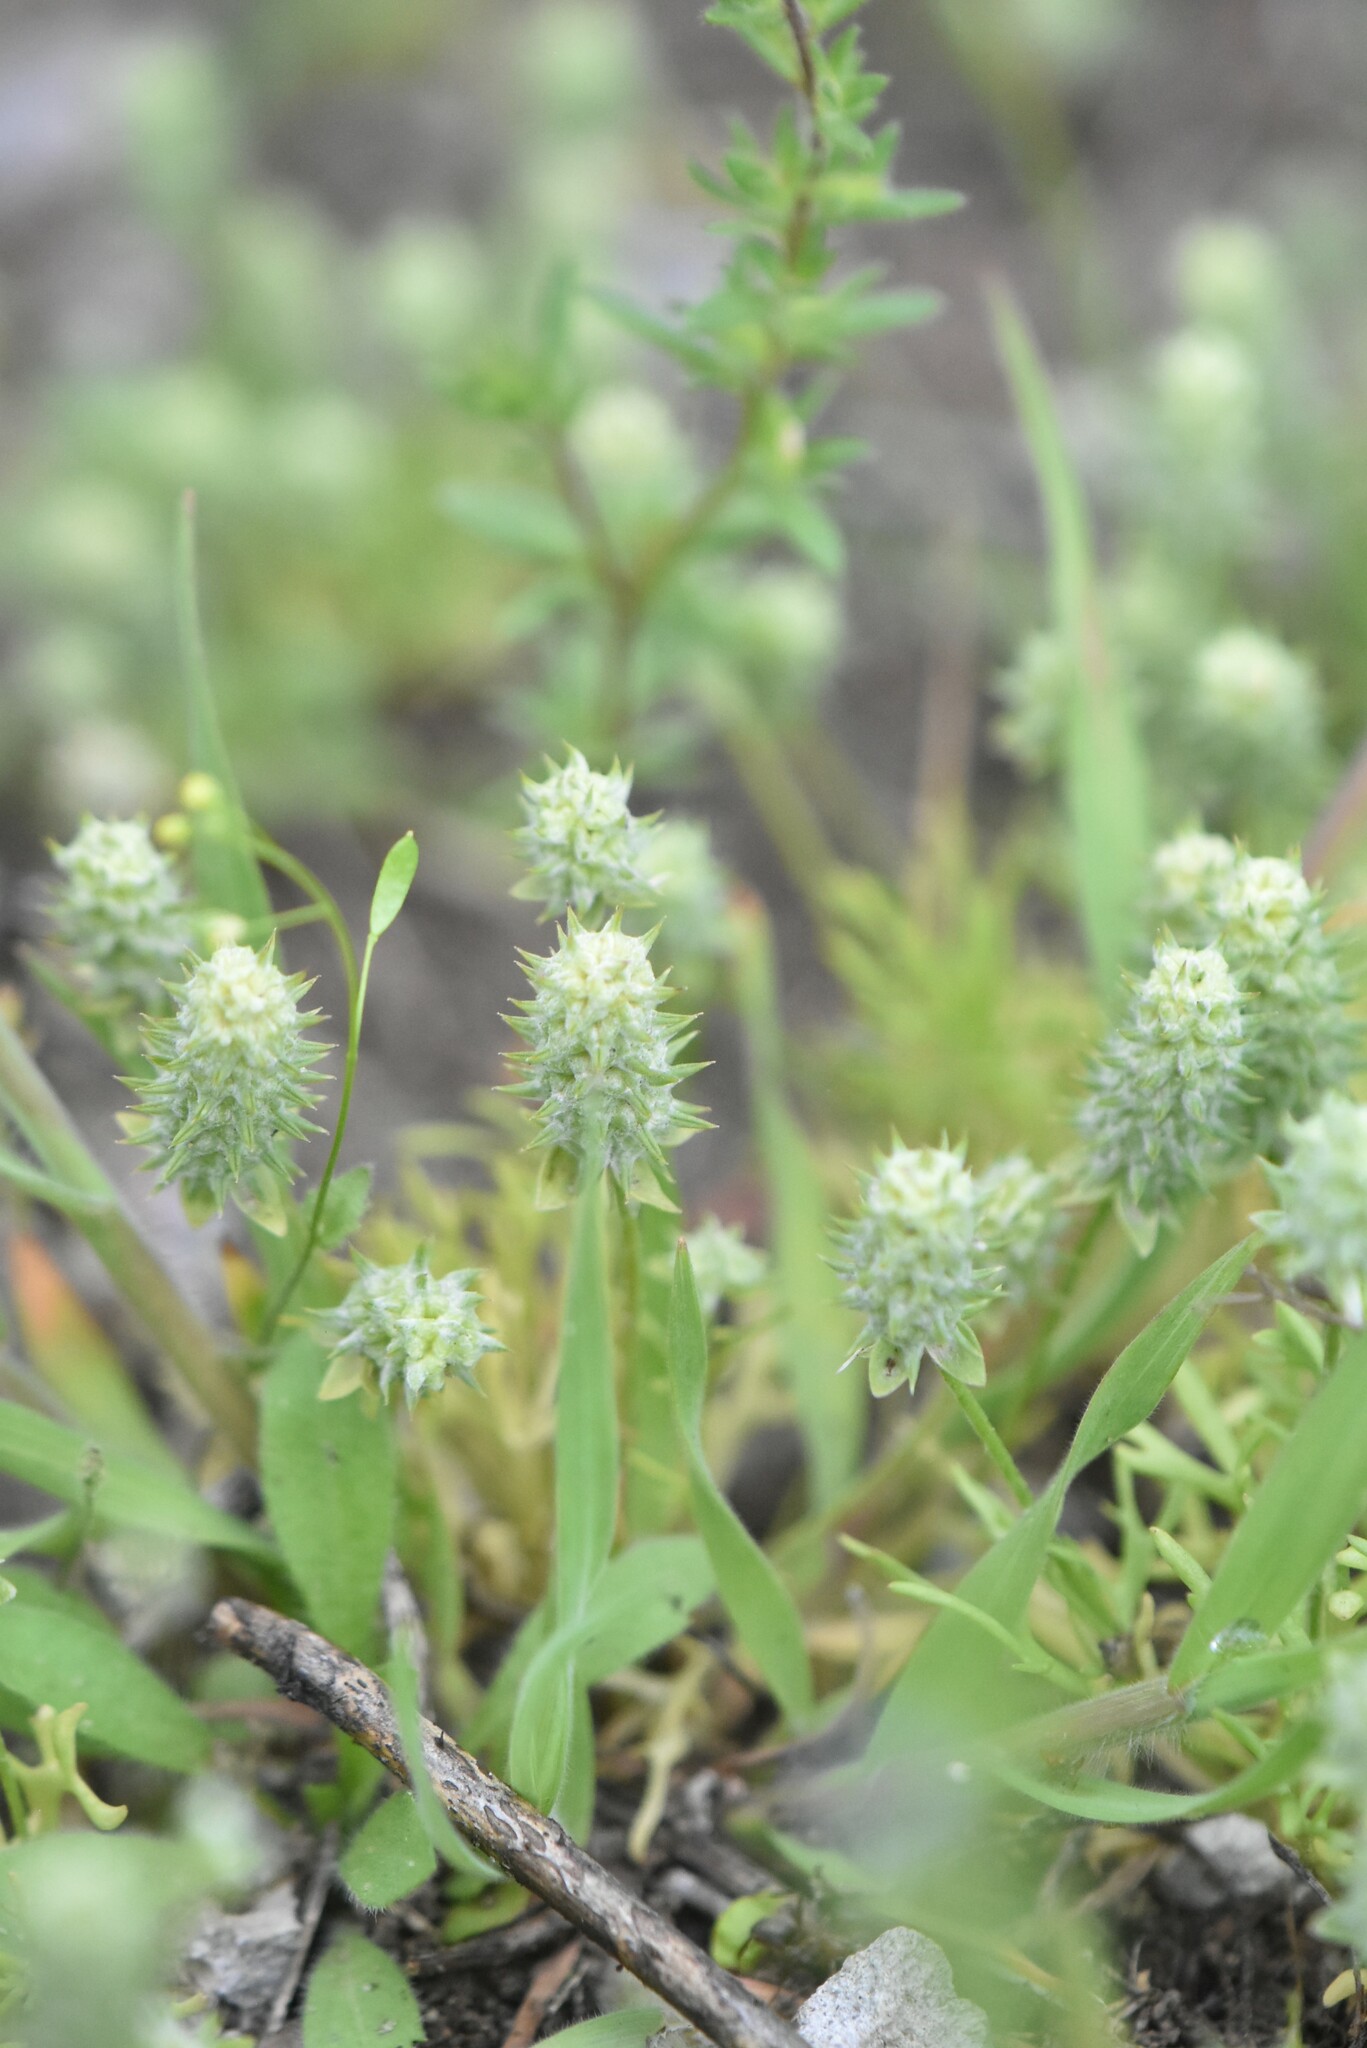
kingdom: Plantae
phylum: Tracheophyta
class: Magnoliopsida
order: Ranunculales
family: Ranunculaceae
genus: Ceratocephala
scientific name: Ceratocephala orthoceras
